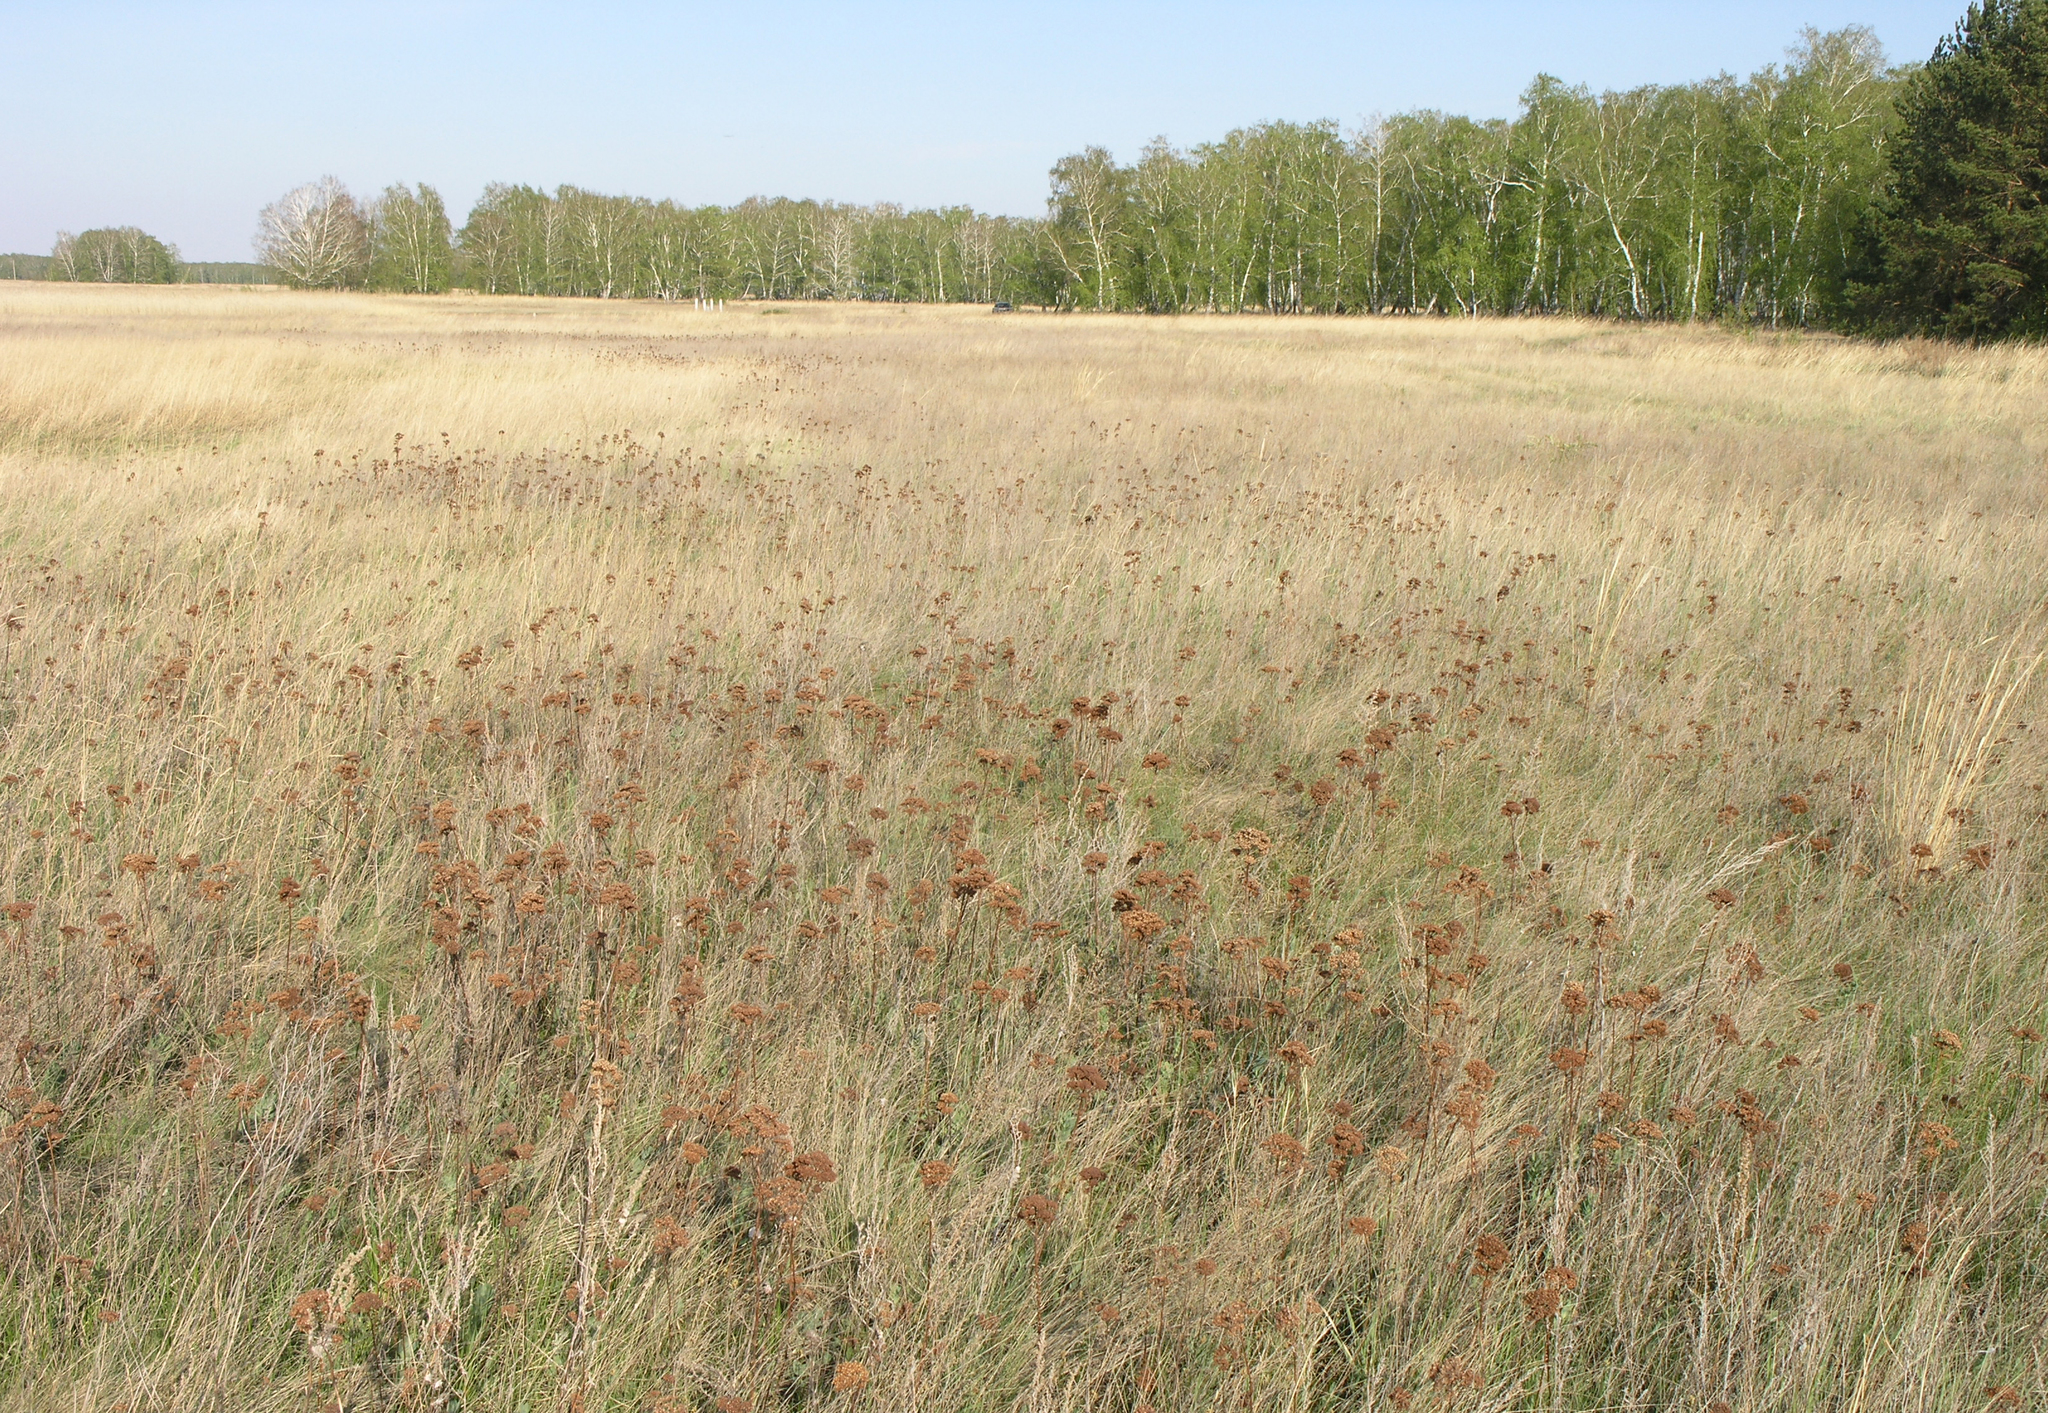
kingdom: Plantae
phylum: Tracheophyta
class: Magnoliopsida
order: Fagales
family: Betulaceae
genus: Betula
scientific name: Betula pendula
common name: Silver birch
